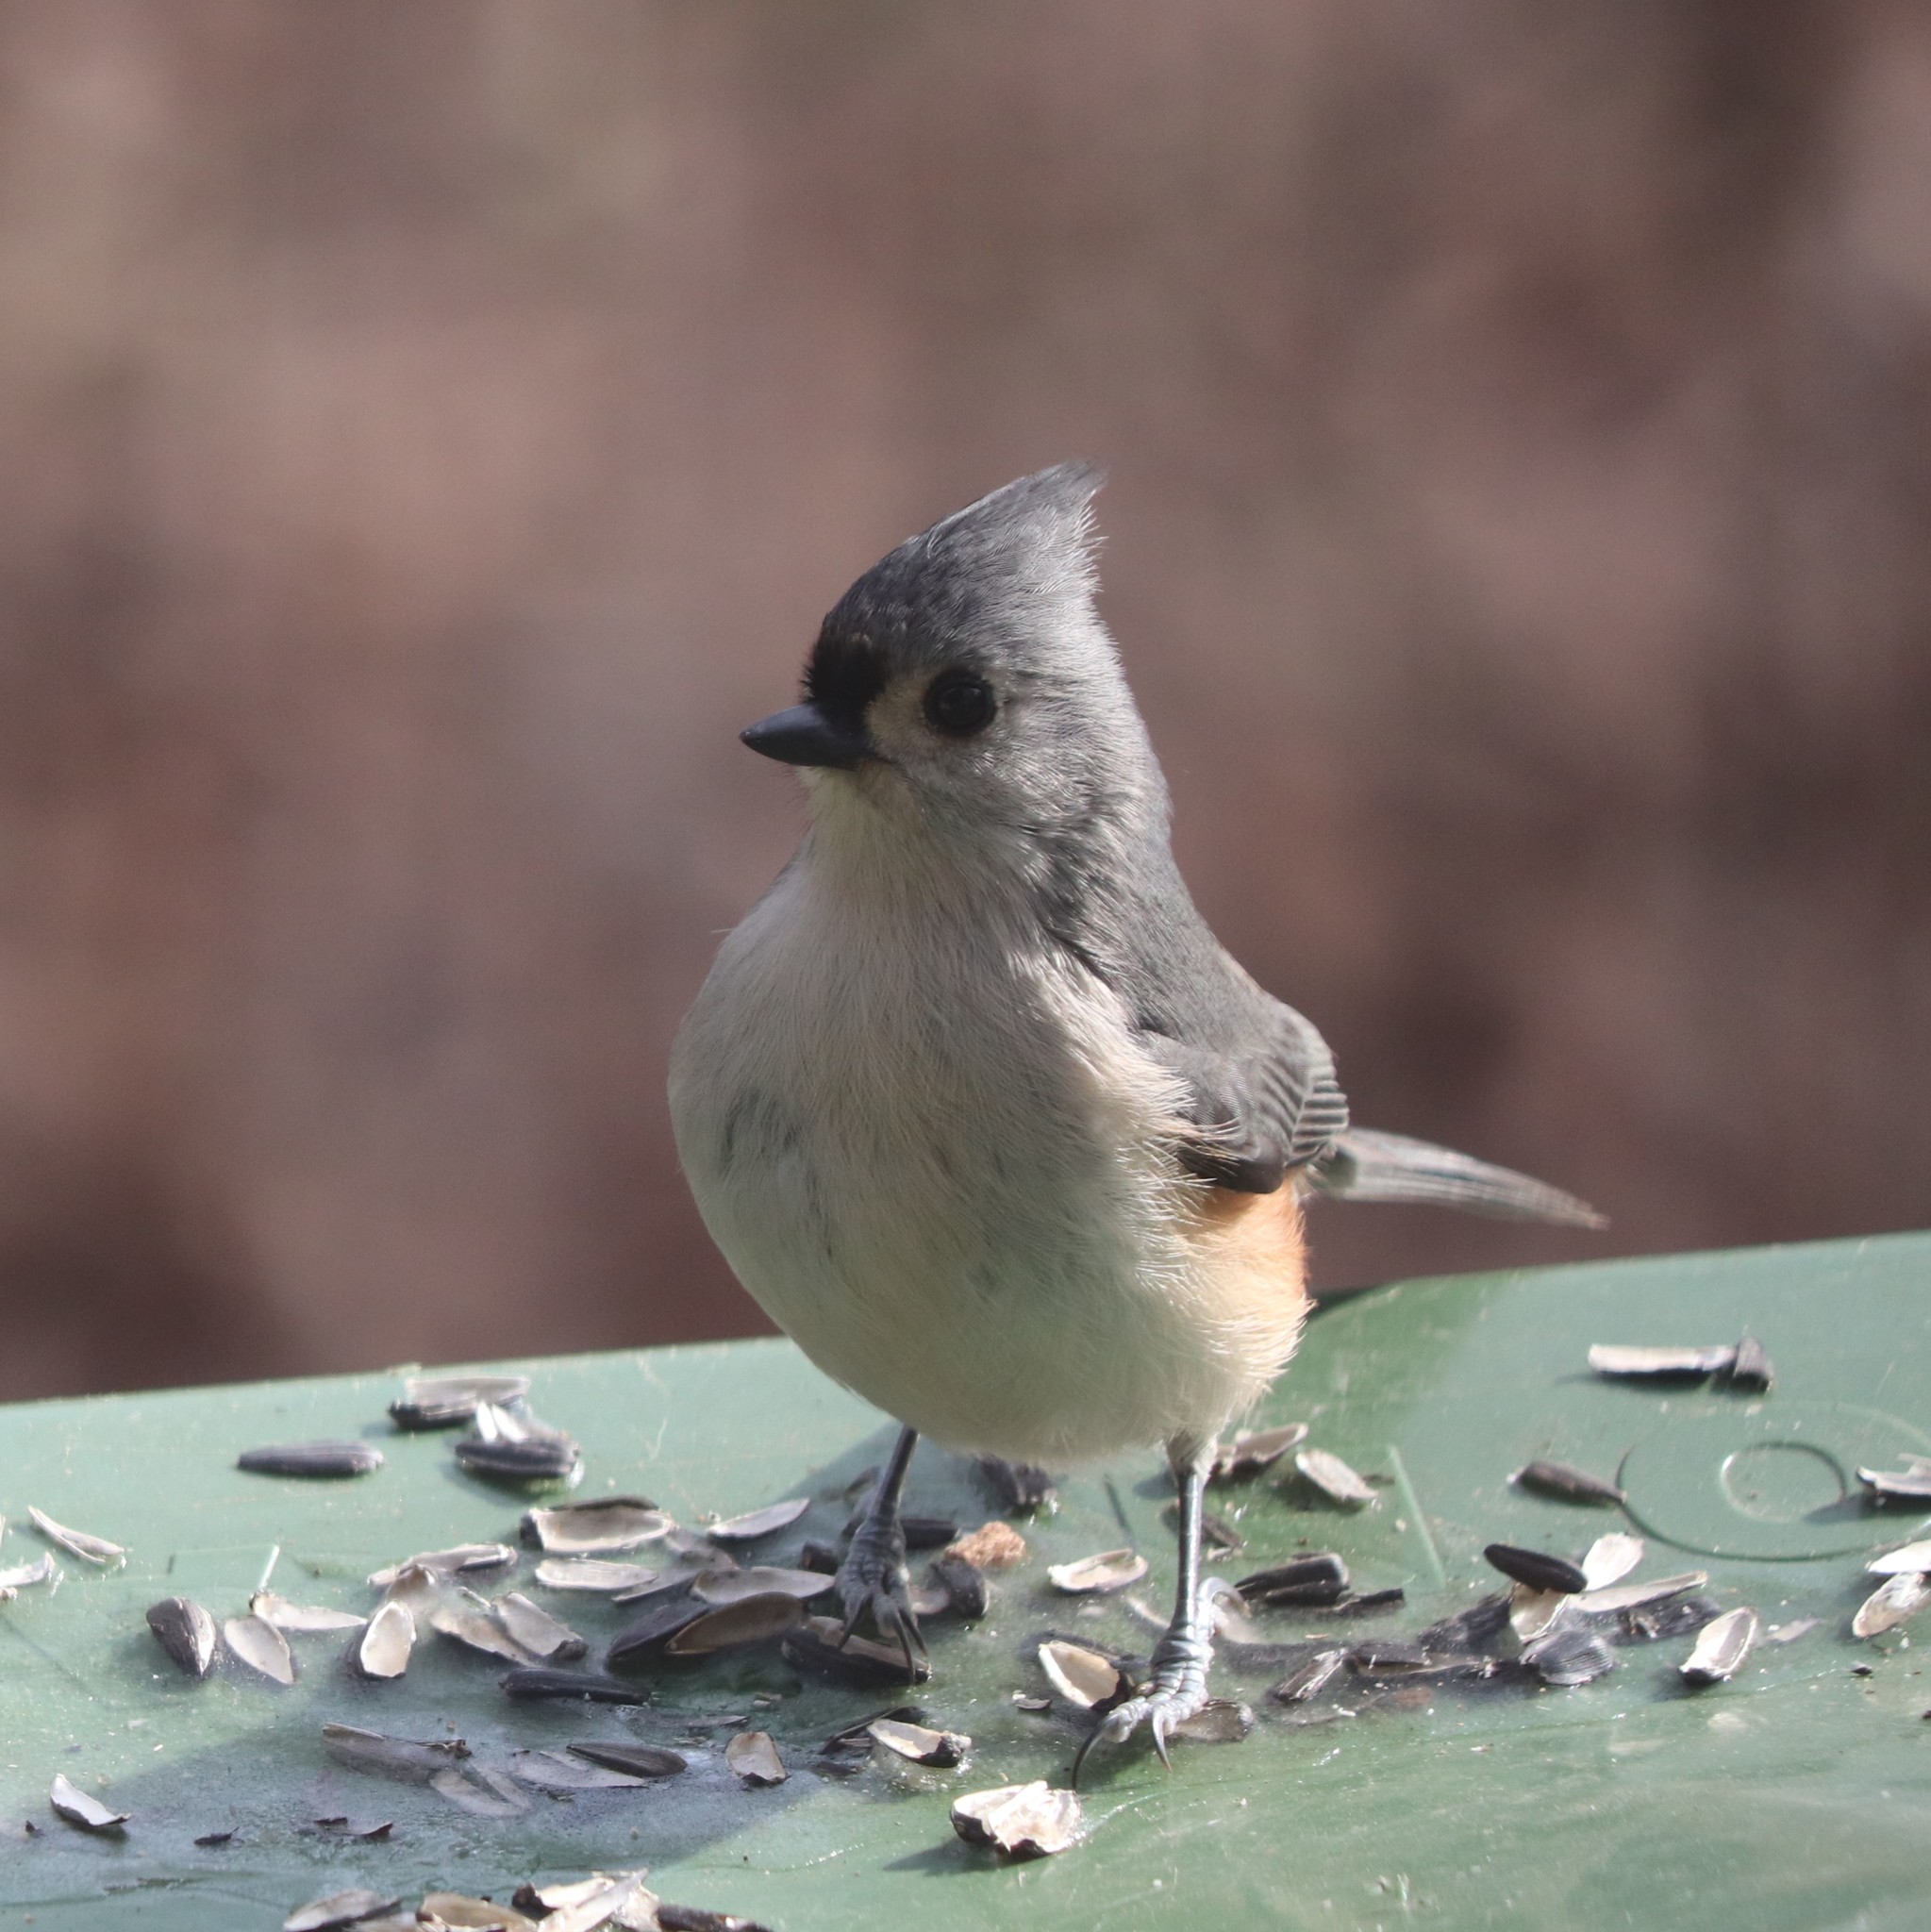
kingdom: Animalia
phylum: Chordata
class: Aves
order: Passeriformes
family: Paridae
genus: Baeolophus
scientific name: Baeolophus bicolor
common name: Tufted titmouse
